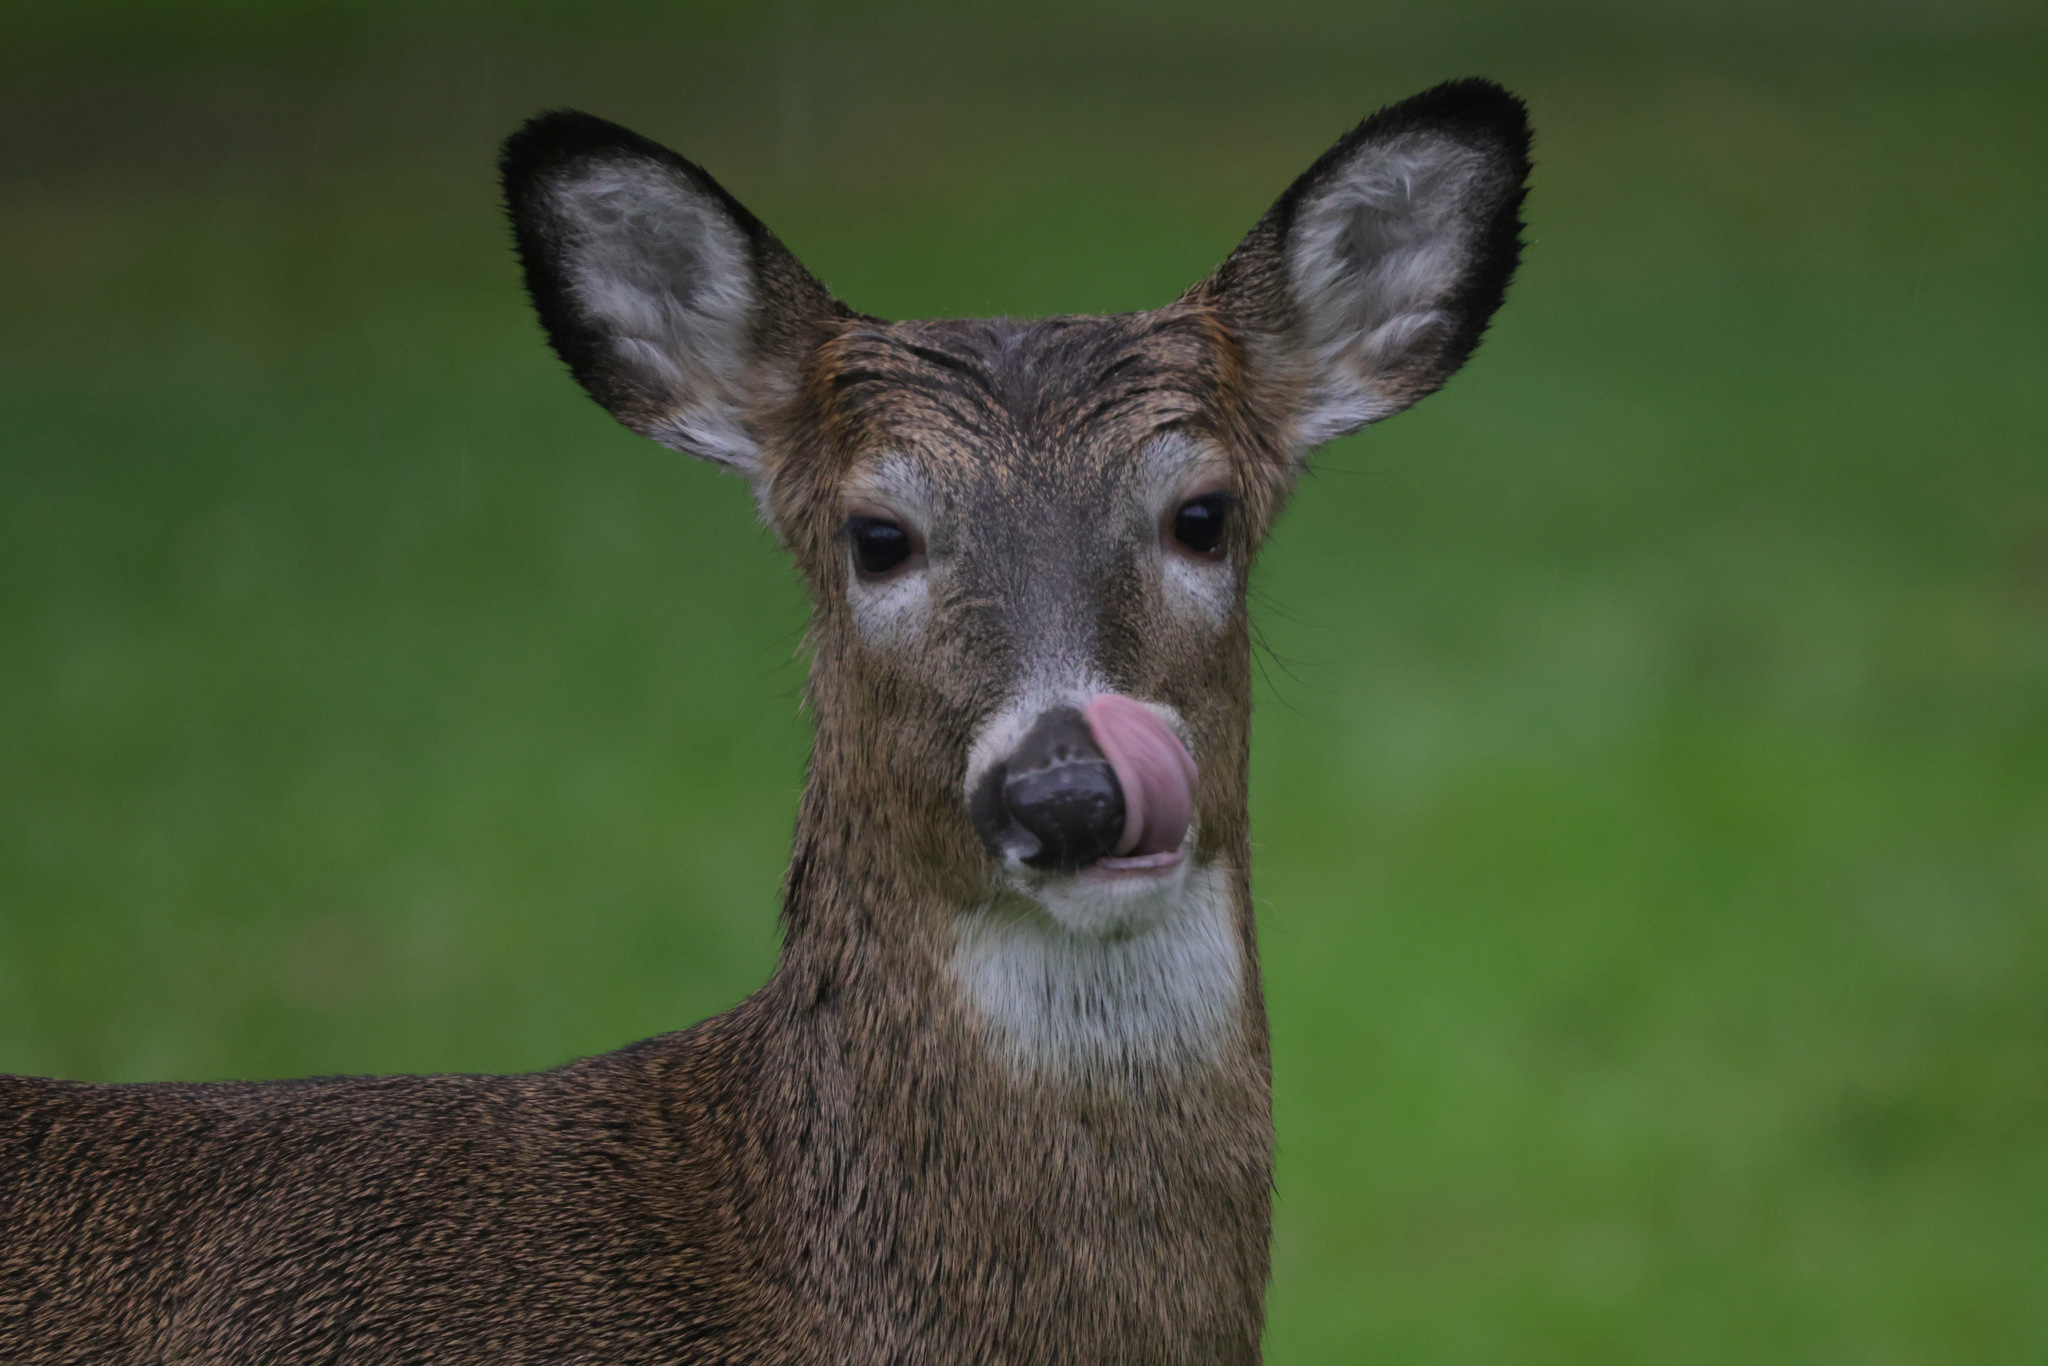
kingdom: Animalia
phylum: Chordata
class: Mammalia
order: Artiodactyla
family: Cervidae
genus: Odocoileus
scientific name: Odocoileus virginianus
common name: White-tailed deer
